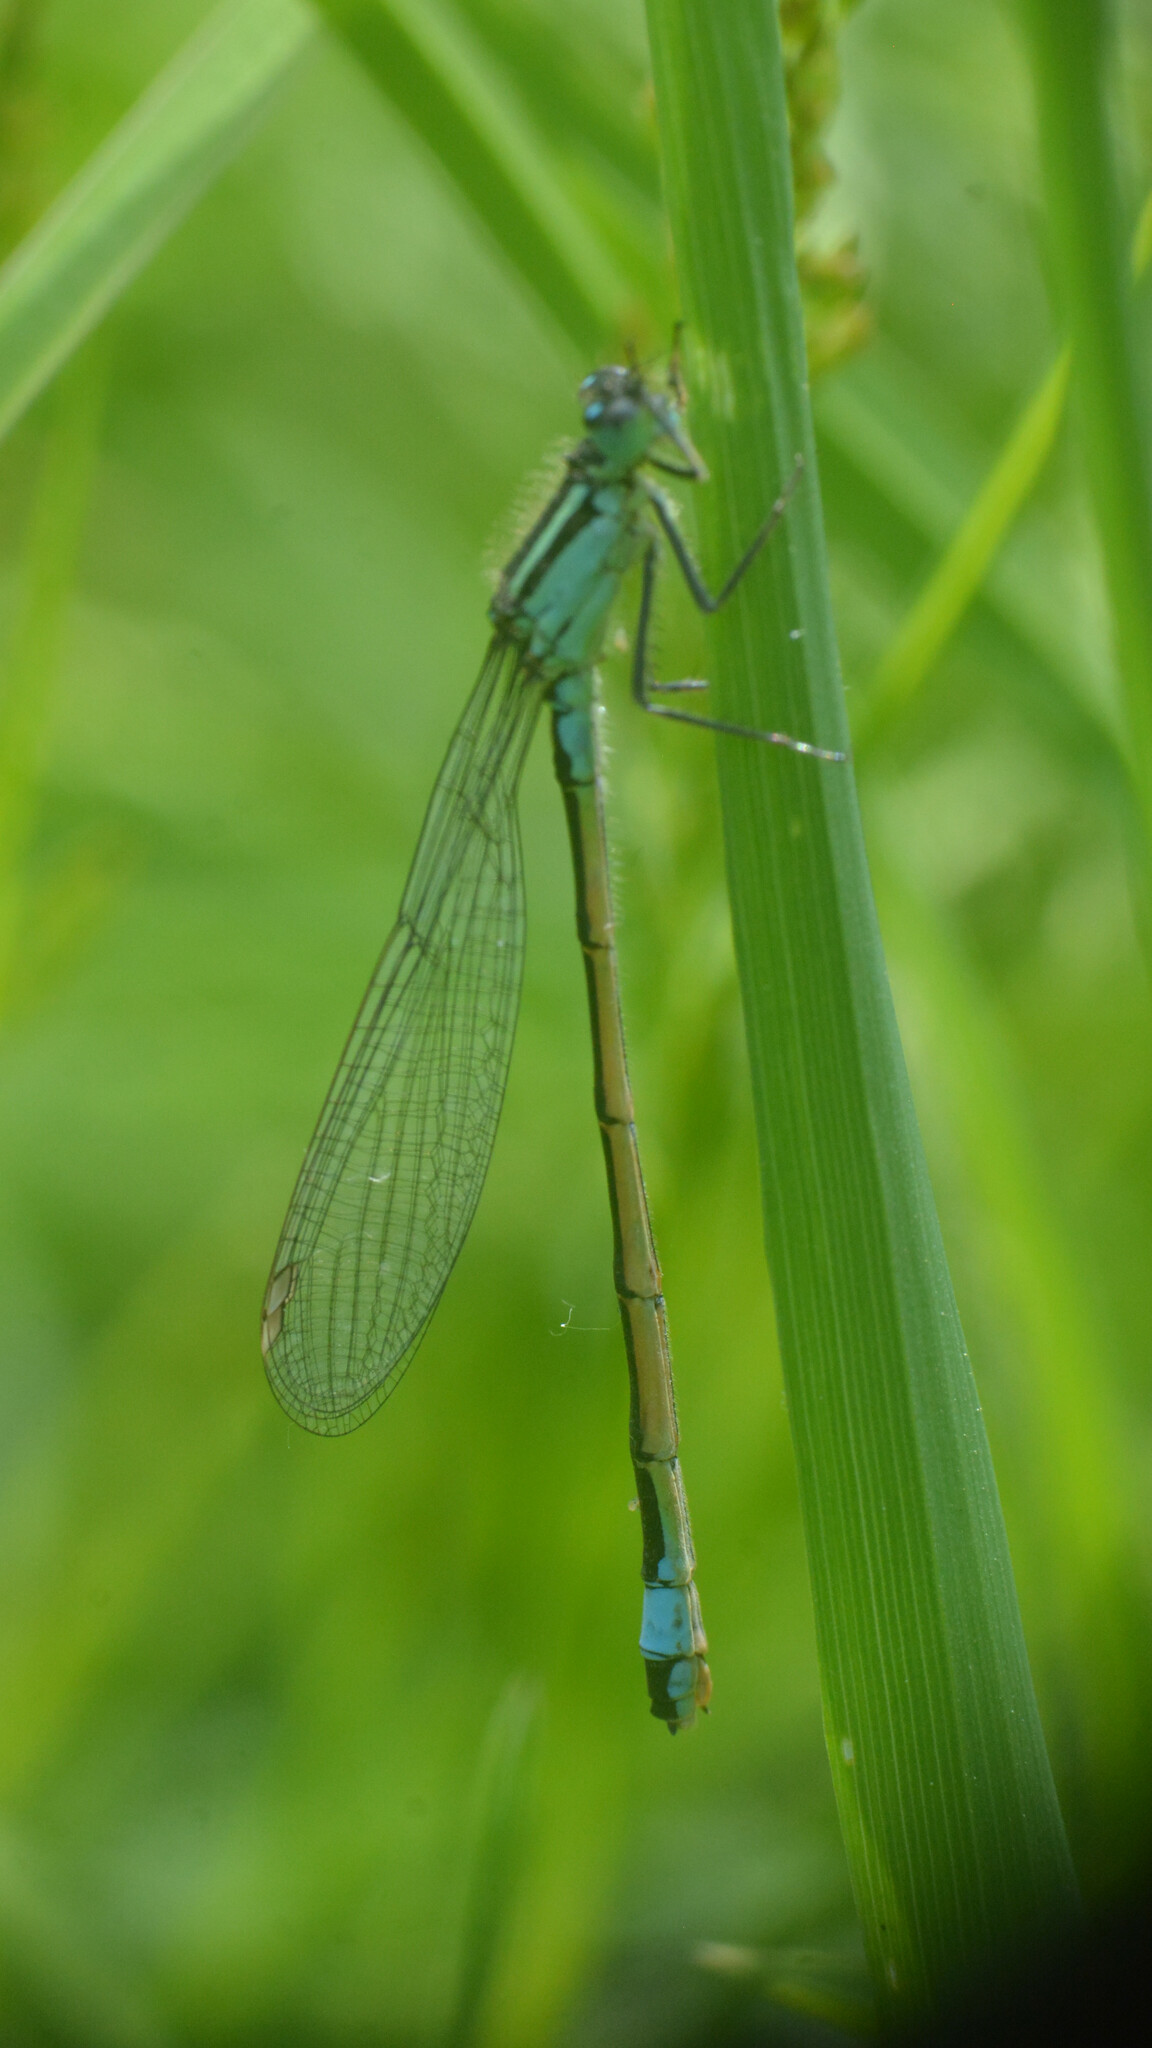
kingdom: Animalia
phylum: Arthropoda
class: Insecta
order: Odonata
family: Coenagrionidae
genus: Ischnura
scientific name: Ischnura elegans
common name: Blue-tailed damselfly
